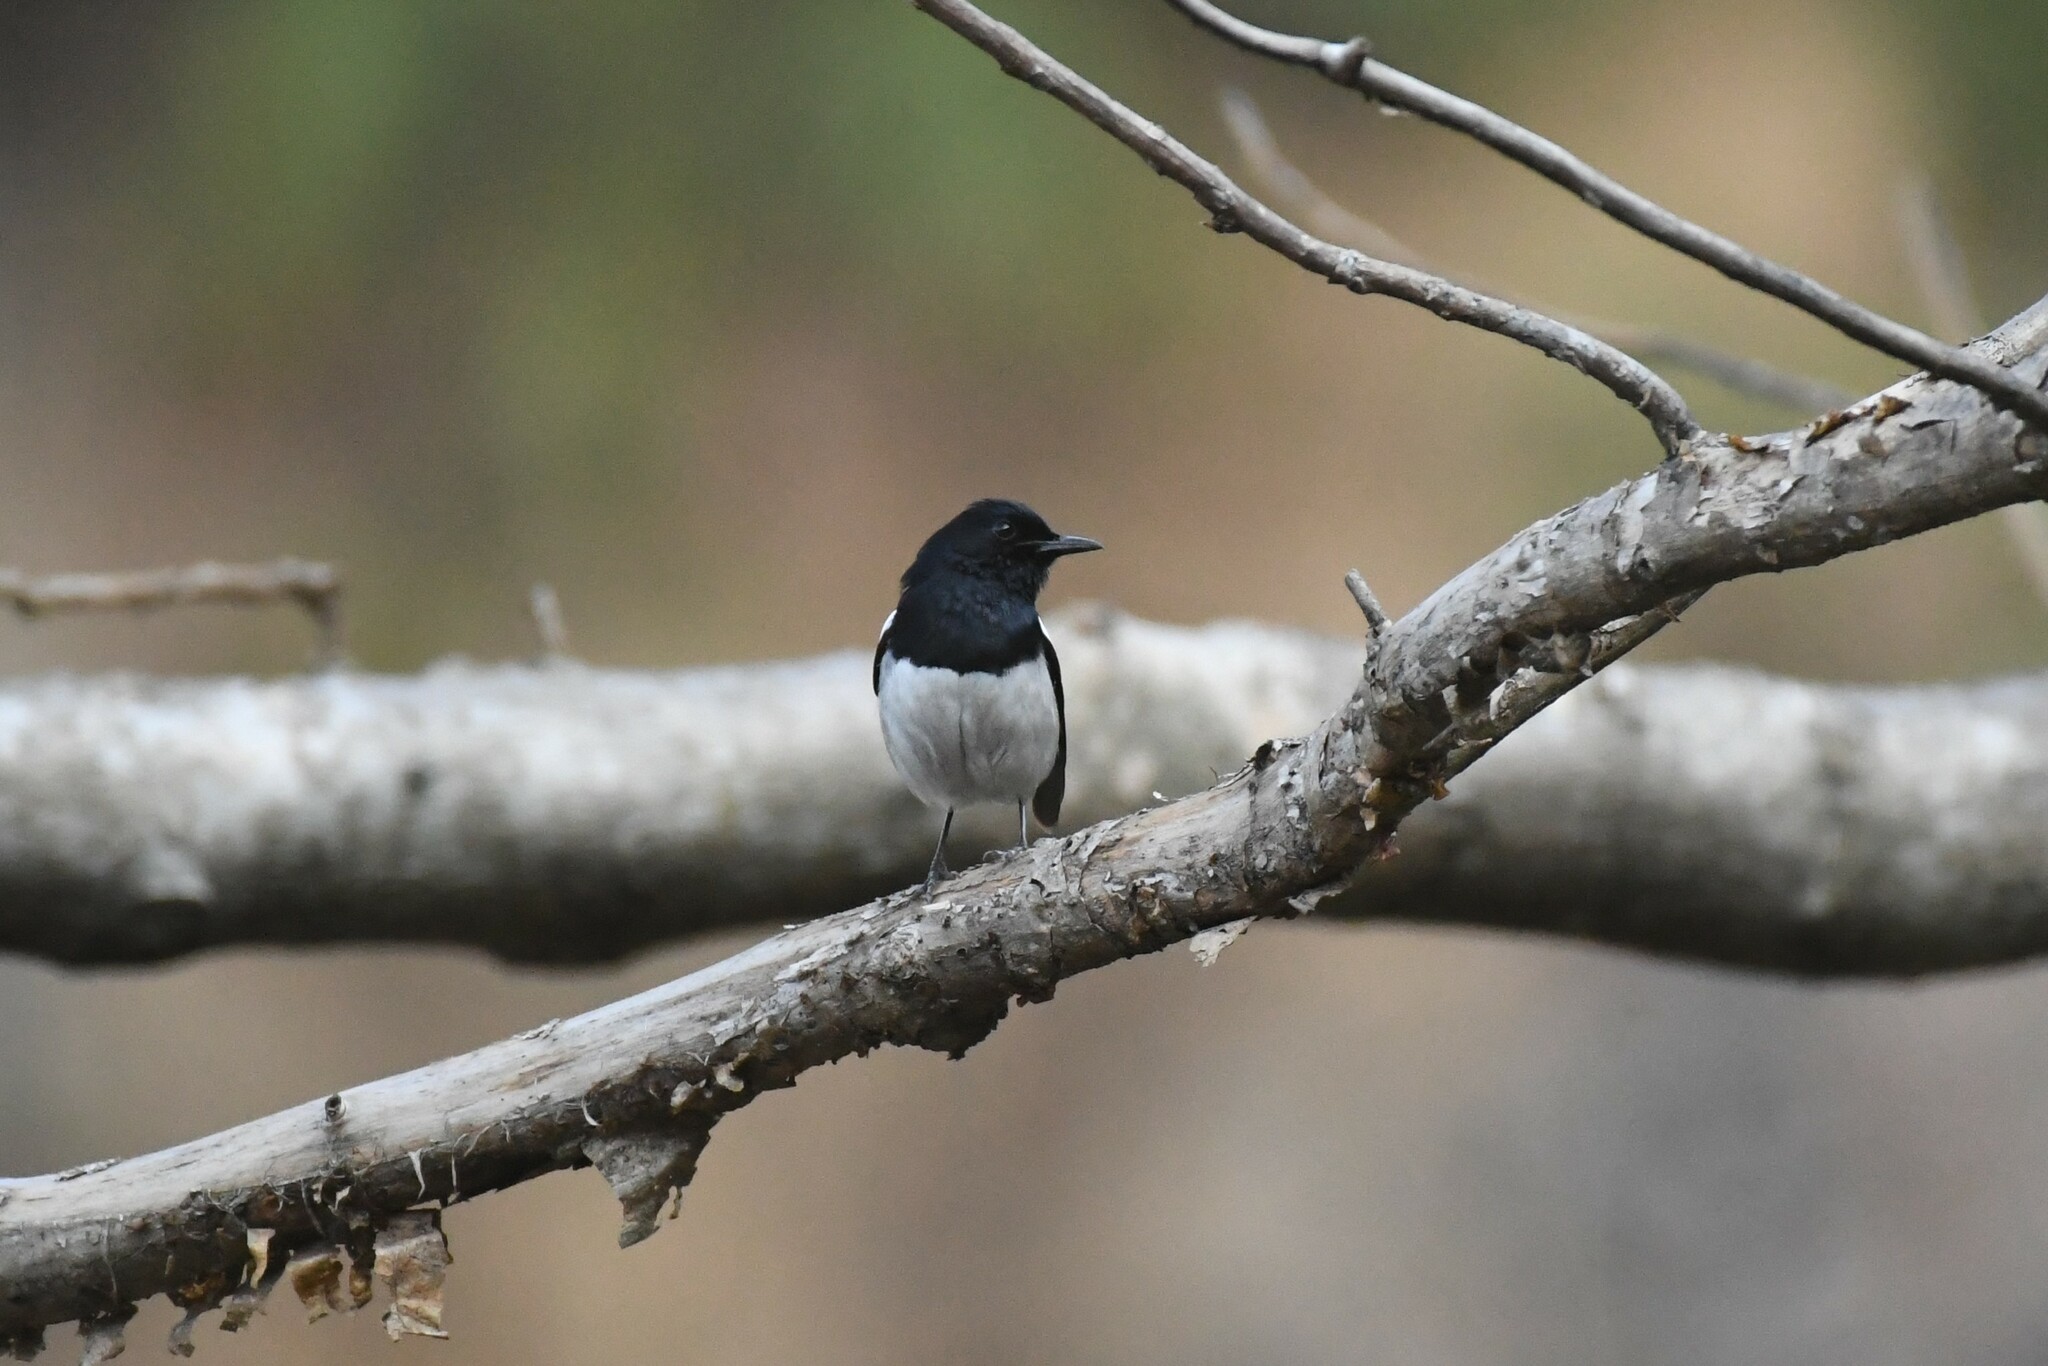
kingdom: Animalia
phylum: Chordata
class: Aves
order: Passeriformes
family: Muscicapidae
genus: Copsychus
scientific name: Copsychus saularis
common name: Oriental magpie-robin
